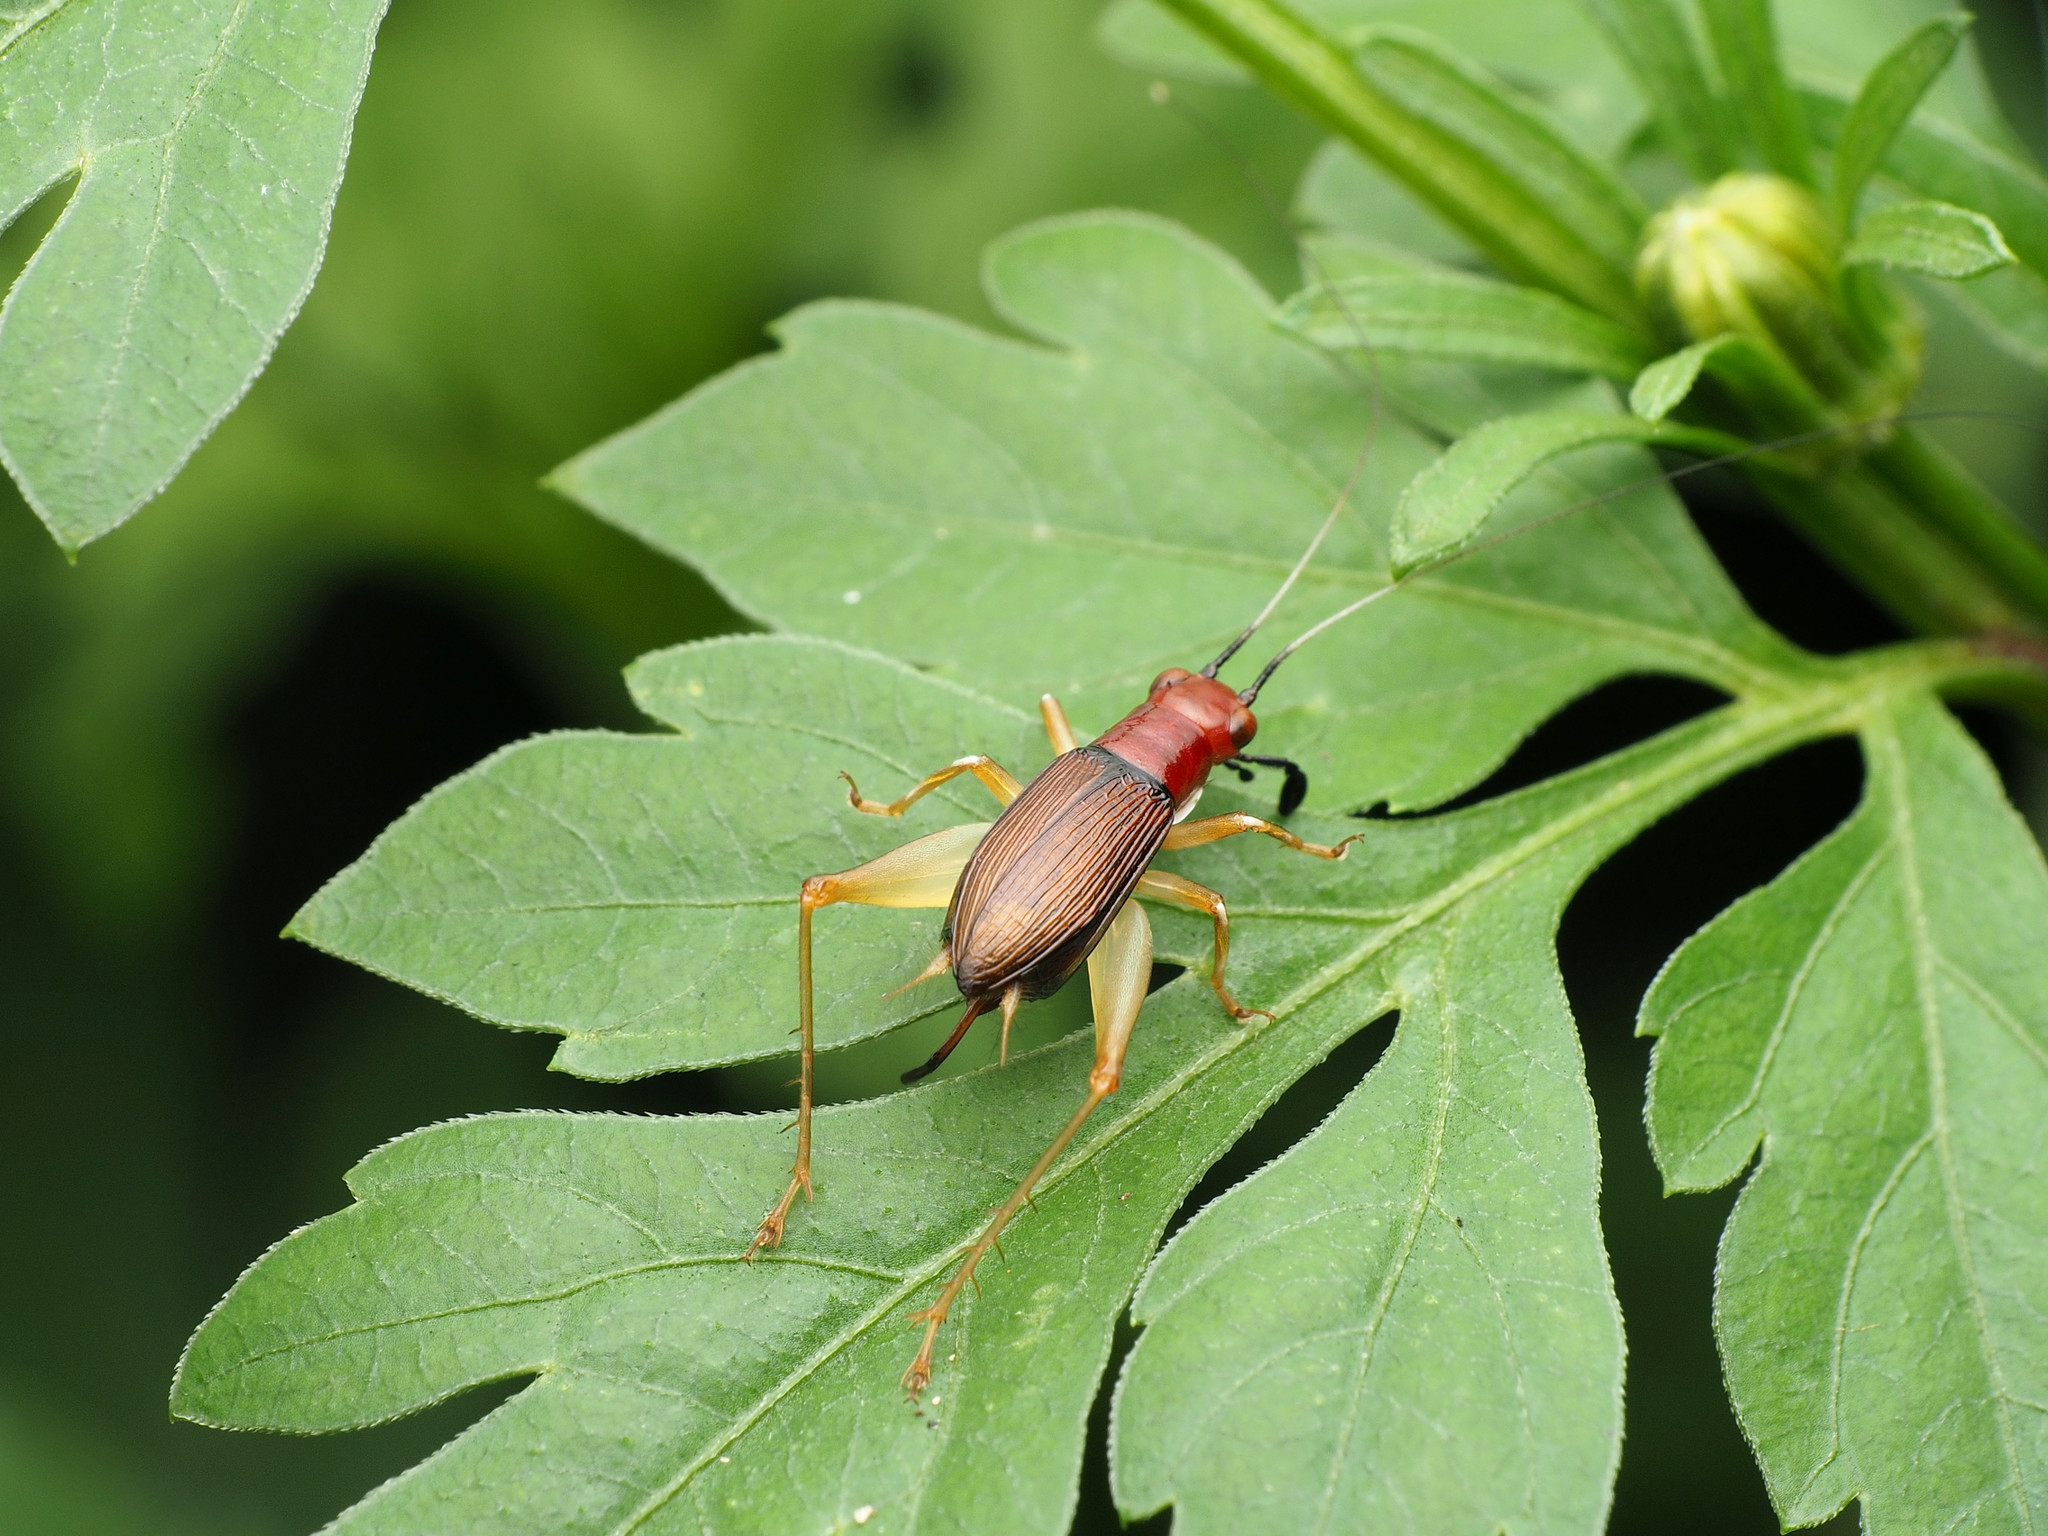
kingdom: Animalia
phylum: Arthropoda
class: Insecta
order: Orthoptera
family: Trigonidiidae
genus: Phyllopalpus
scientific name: Phyllopalpus pulchellus
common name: Handsome trig
